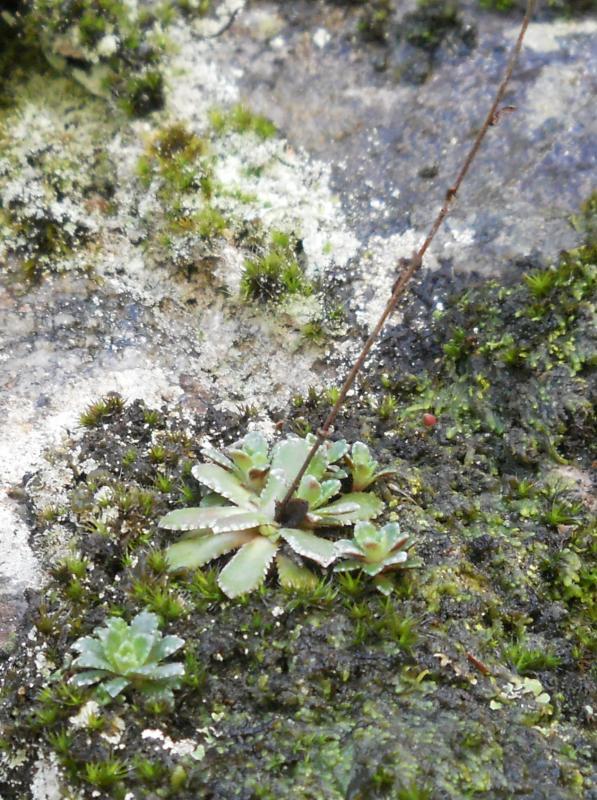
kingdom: Plantae
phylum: Tracheophyta
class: Magnoliopsida
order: Saxifragales
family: Saxifragaceae
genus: Saxifraga
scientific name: Saxifraga paniculata
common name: Livelong saxifrage
